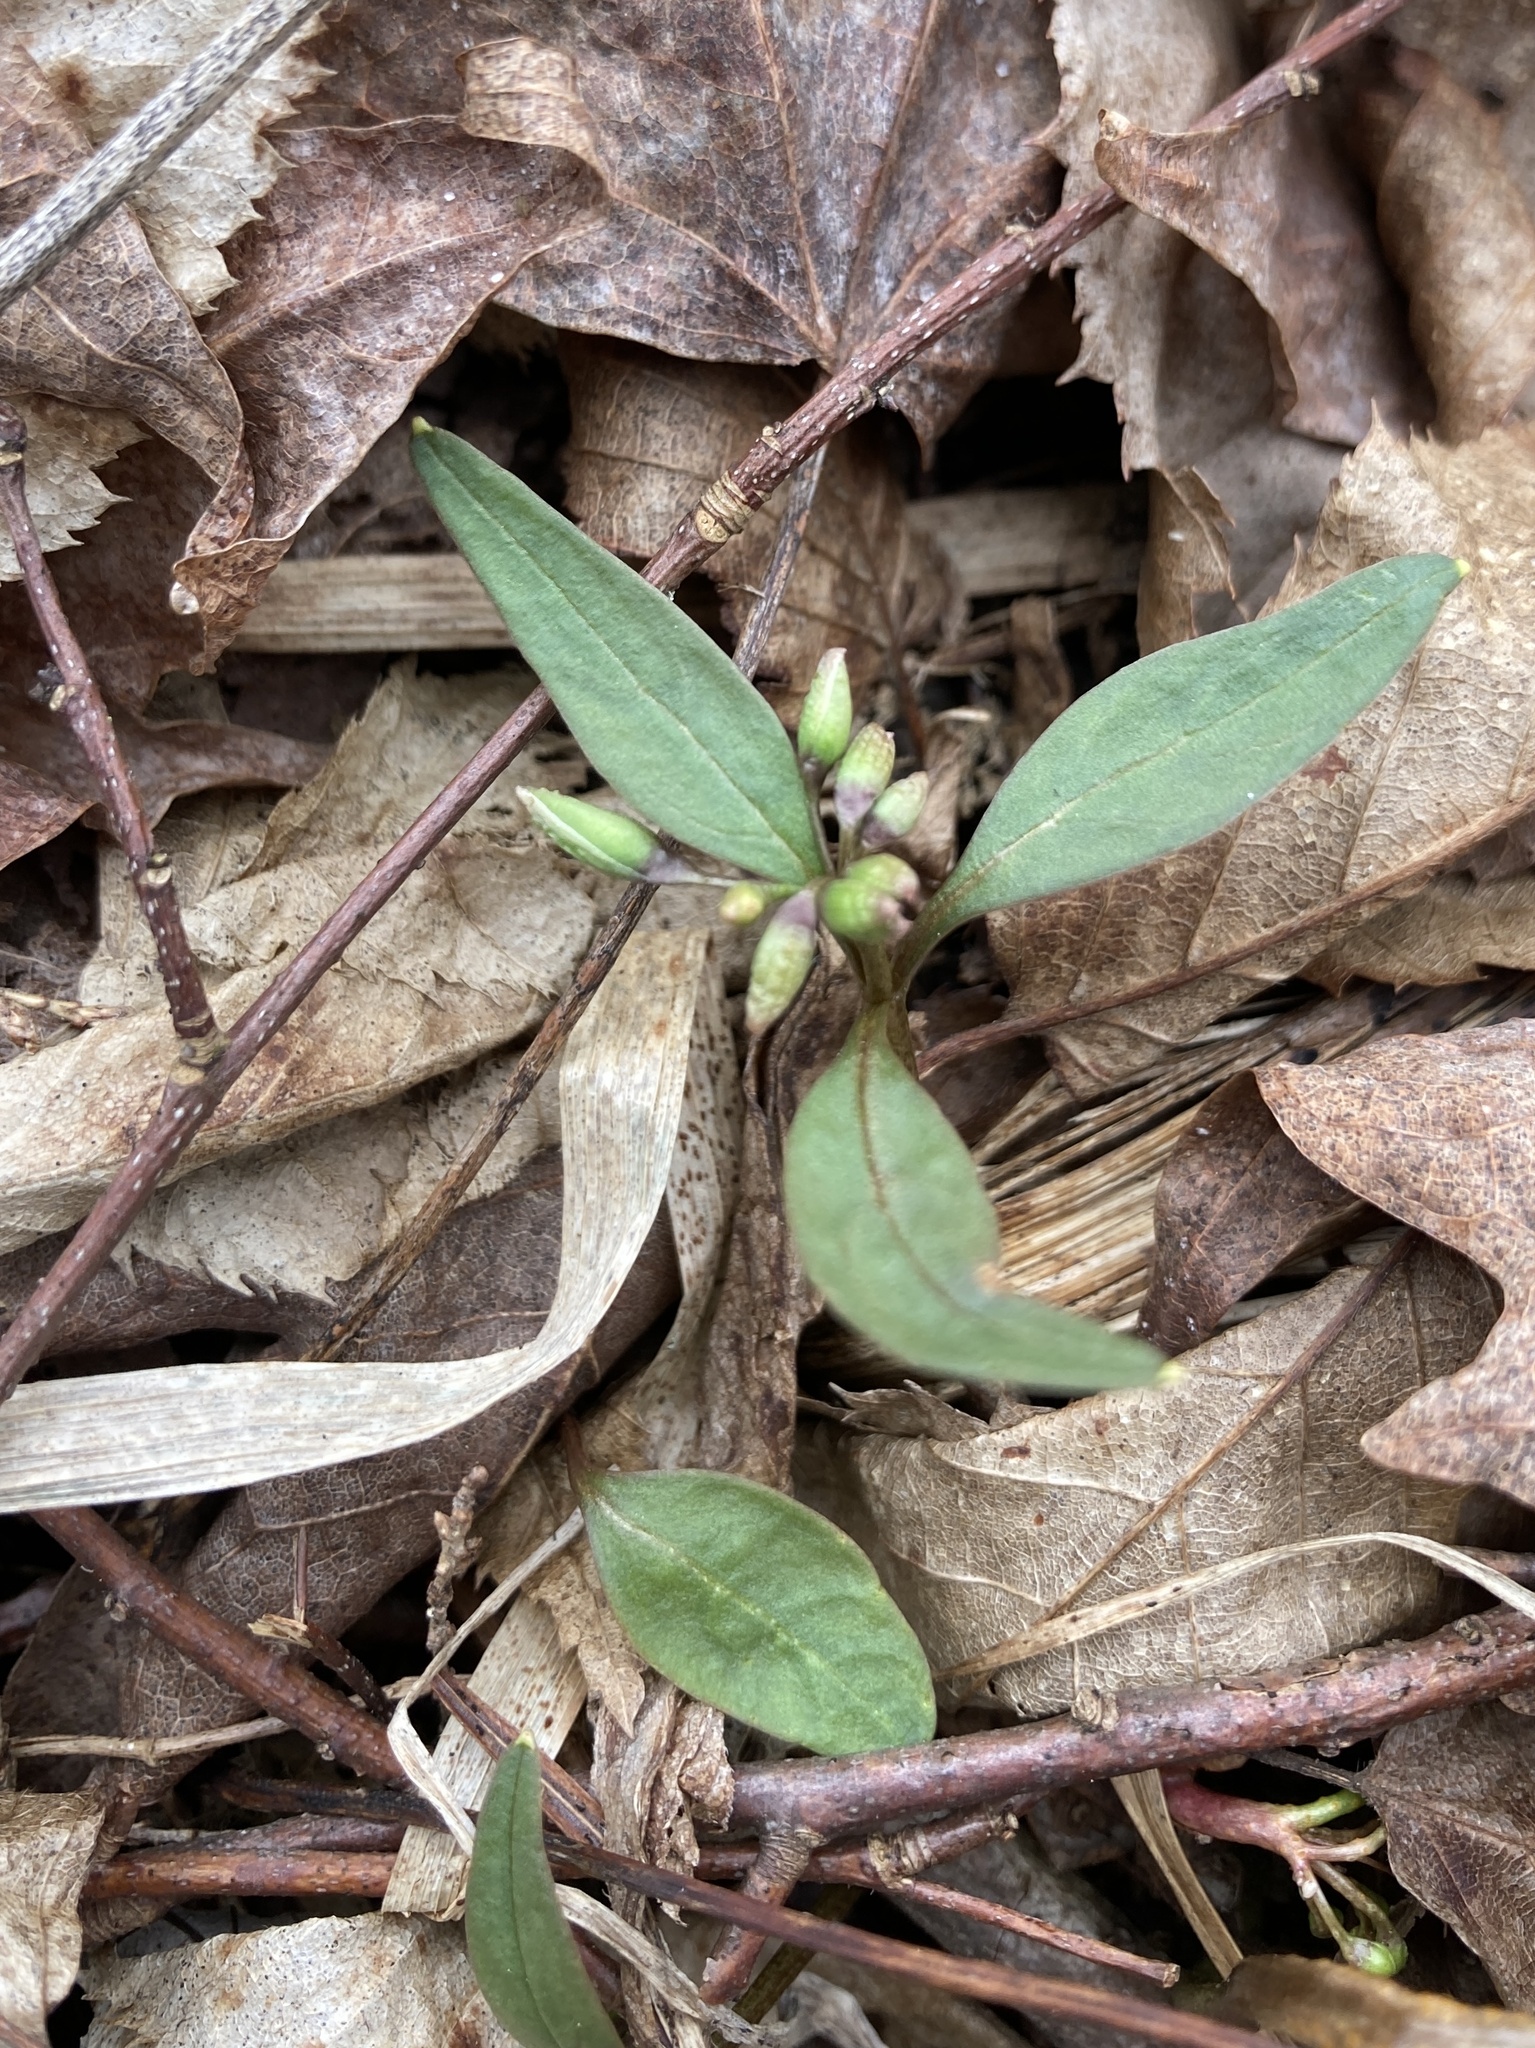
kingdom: Plantae
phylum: Tracheophyta
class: Magnoliopsida
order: Caryophyllales
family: Montiaceae
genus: Claytonia
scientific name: Claytonia caroliniana
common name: Carolina spring beauty
